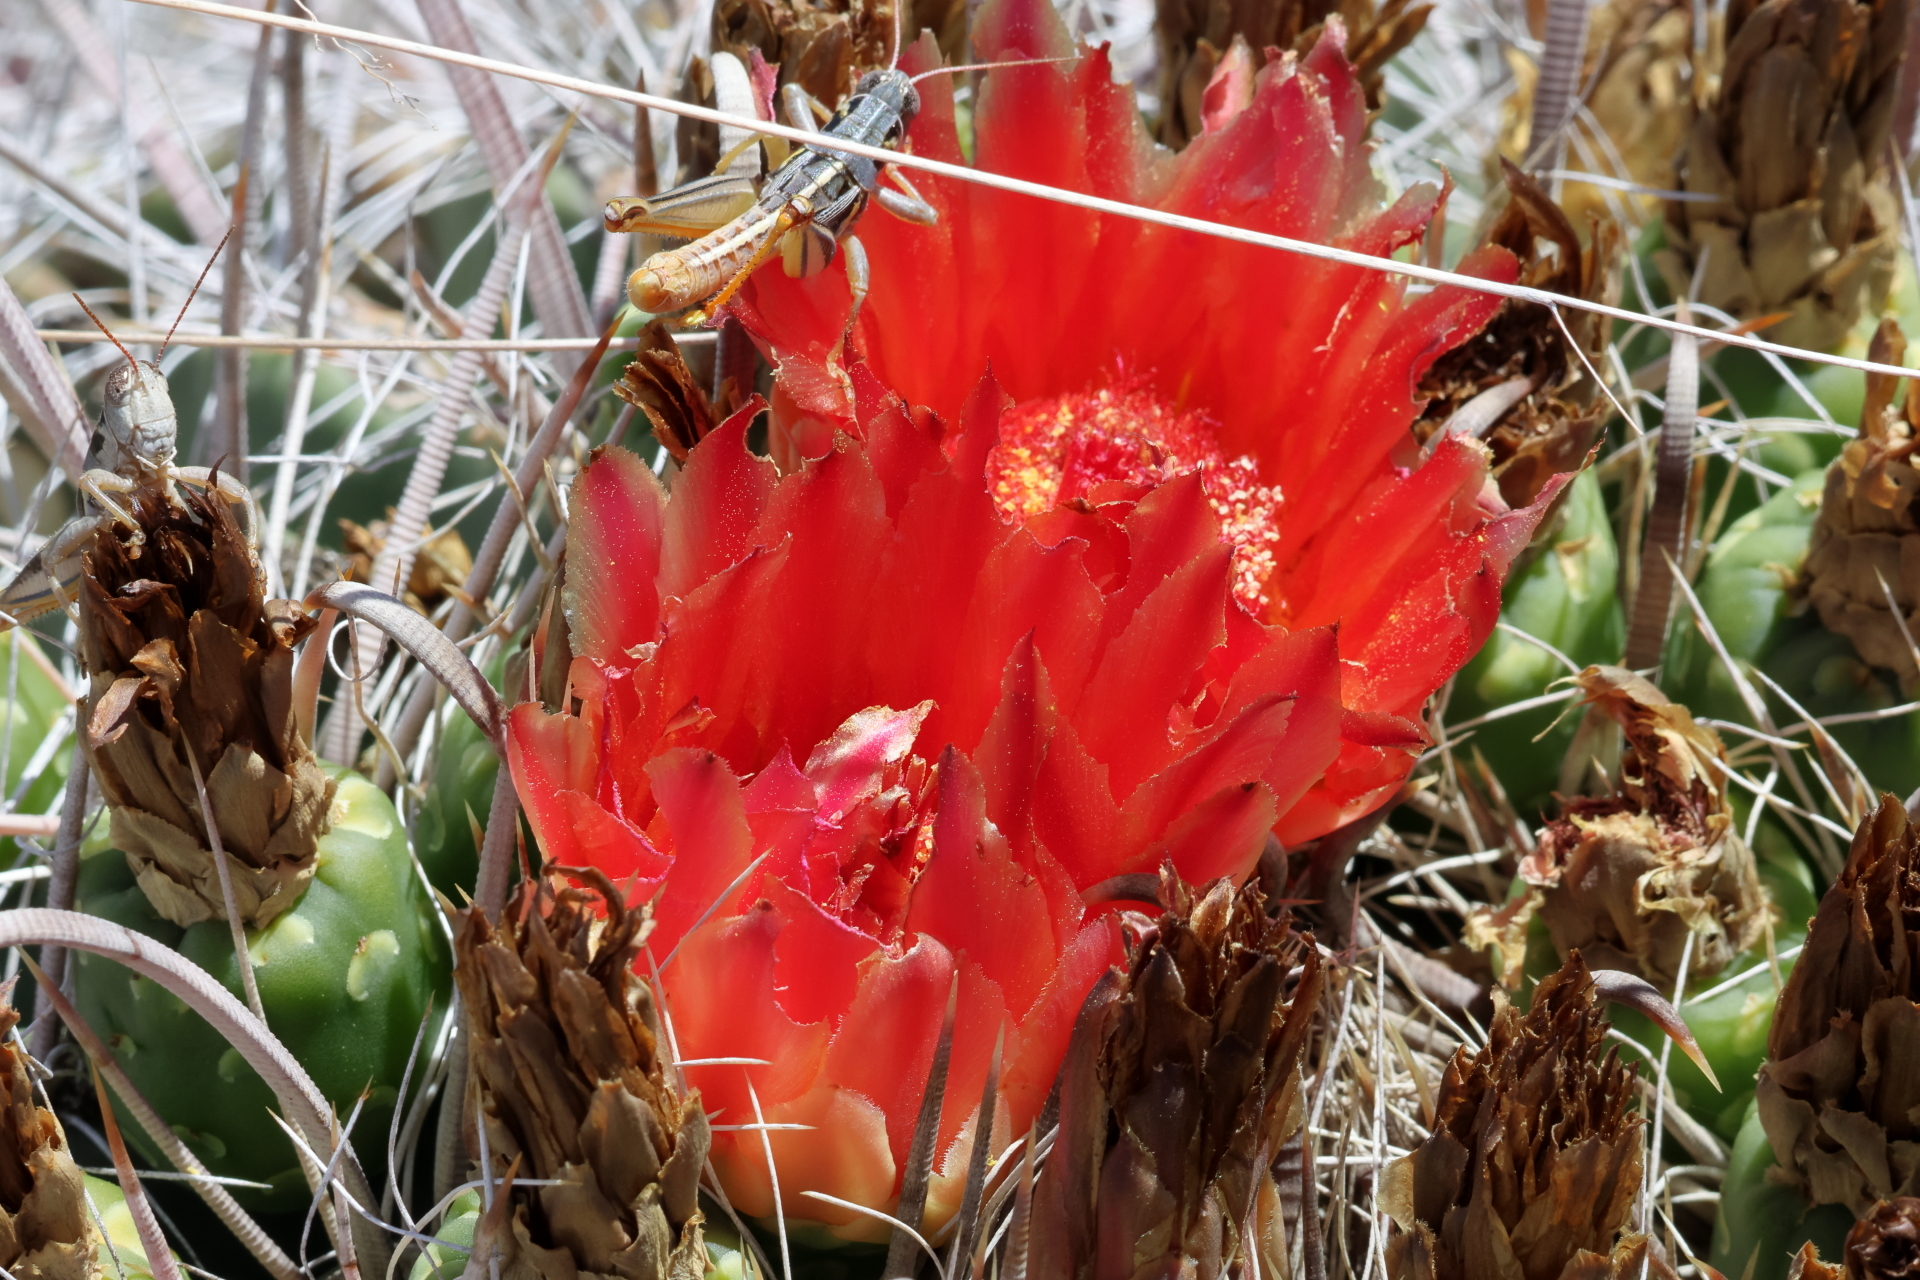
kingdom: Plantae
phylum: Tracheophyta
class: Magnoliopsida
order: Caryophyllales
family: Cactaceae
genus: Ferocactus
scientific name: Ferocactus wislizeni
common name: Candy barrel cactus
